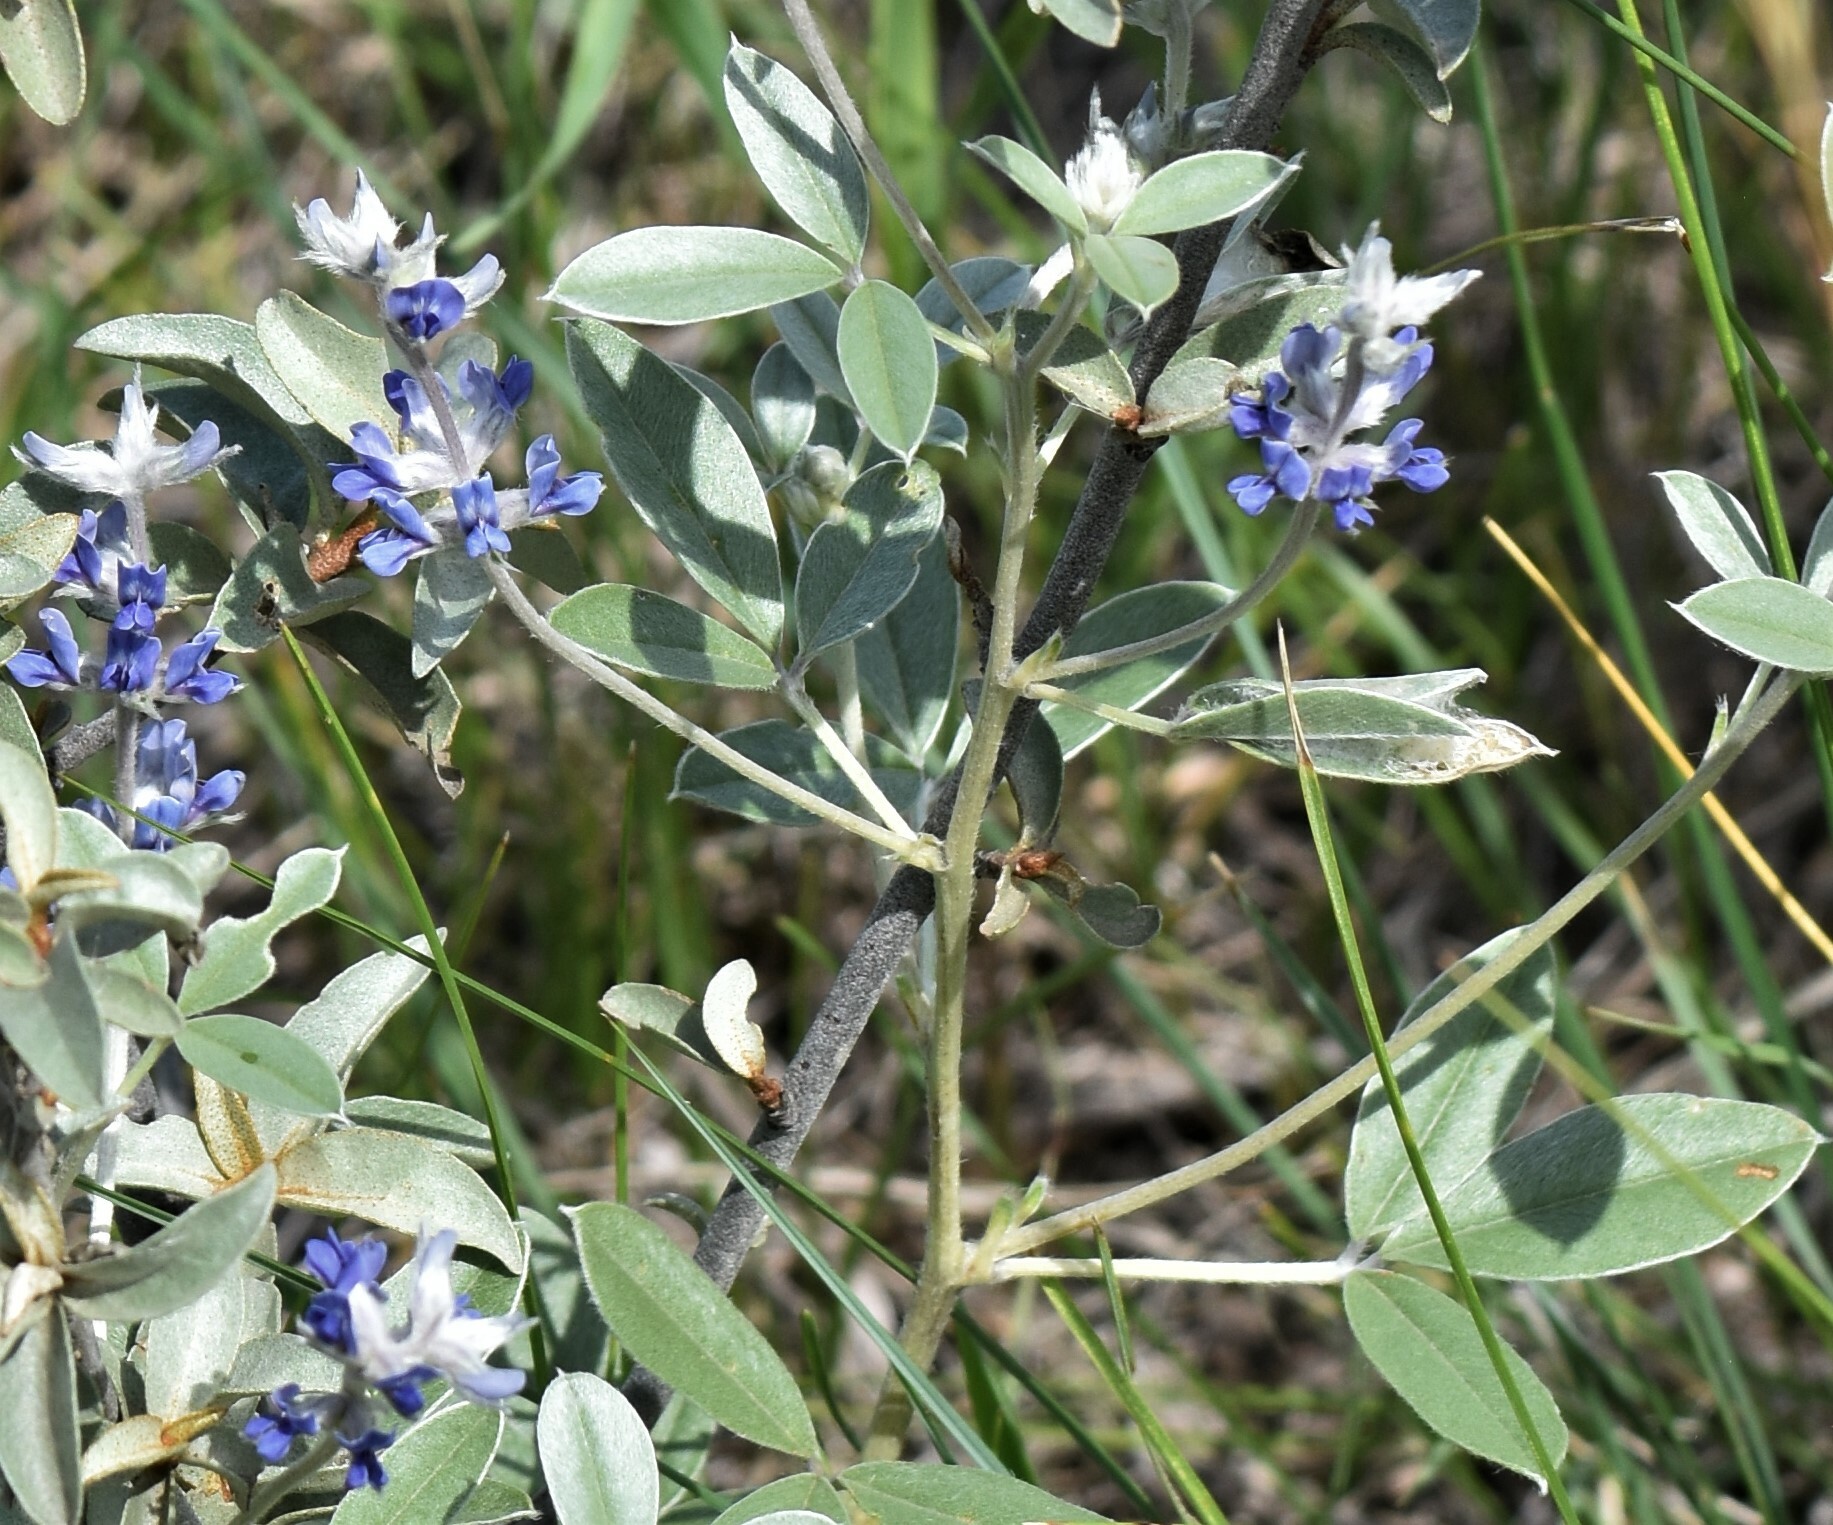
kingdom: Plantae
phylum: Tracheophyta
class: Magnoliopsida
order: Fabales
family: Fabaceae
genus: Pediomelum
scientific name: Pediomelum argophyllum
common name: Silver-leaved indian breadroot
